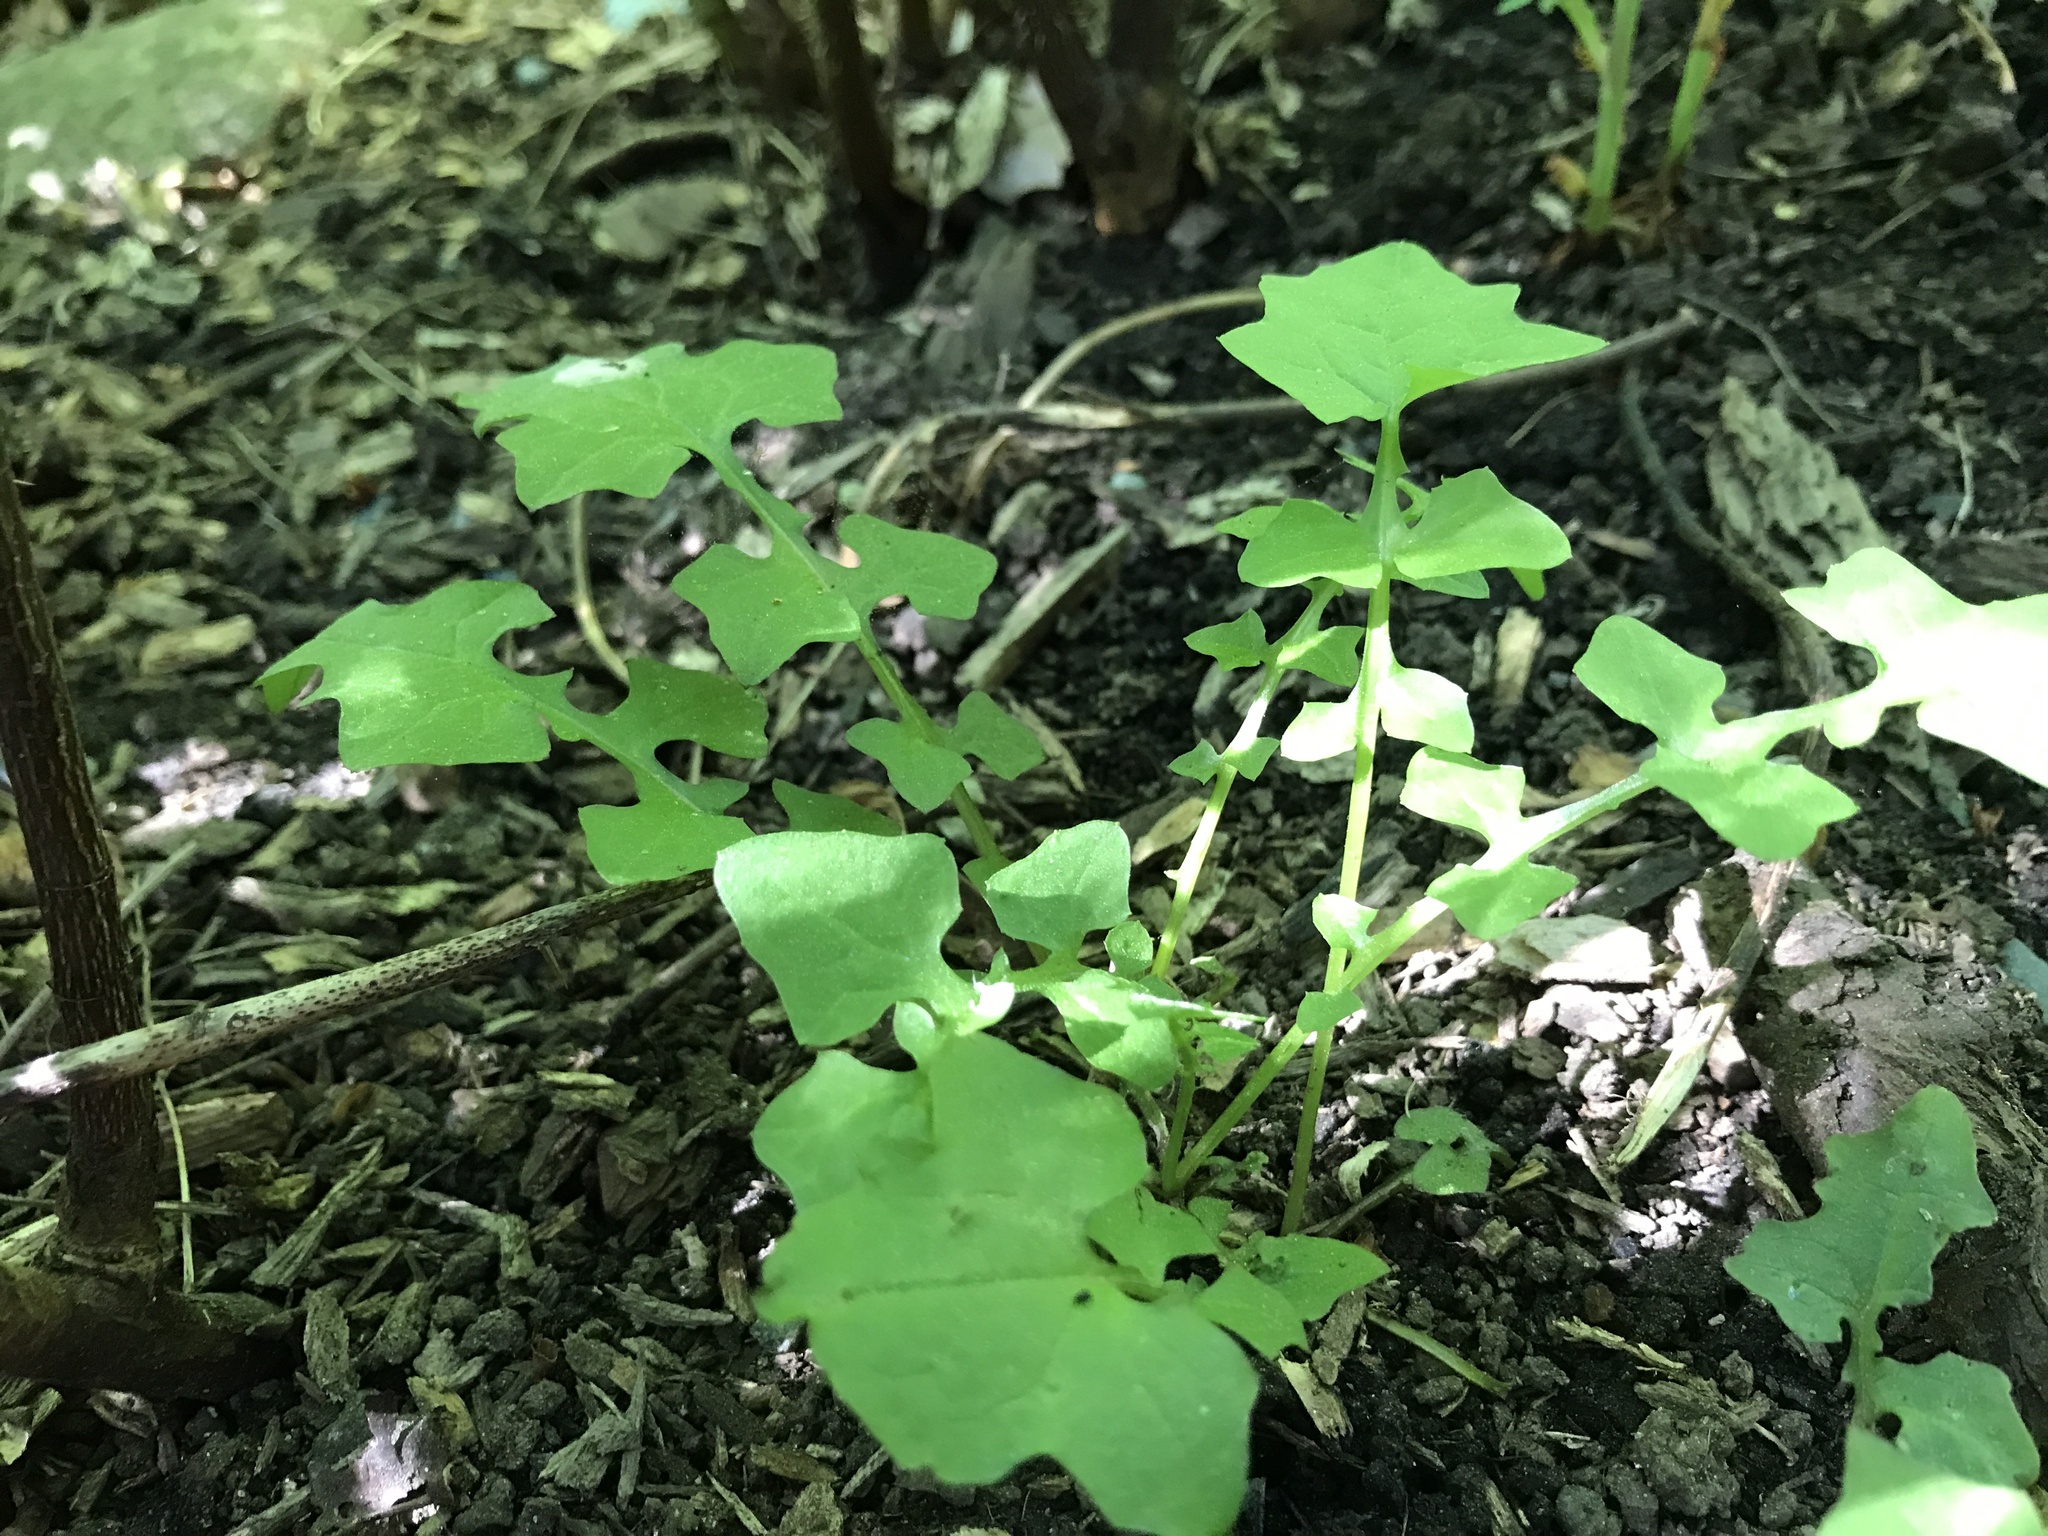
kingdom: Plantae
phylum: Tracheophyta
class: Magnoliopsida
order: Asterales
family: Asteraceae
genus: Mycelis
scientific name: Mycelis muralis
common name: Wall lettuce
